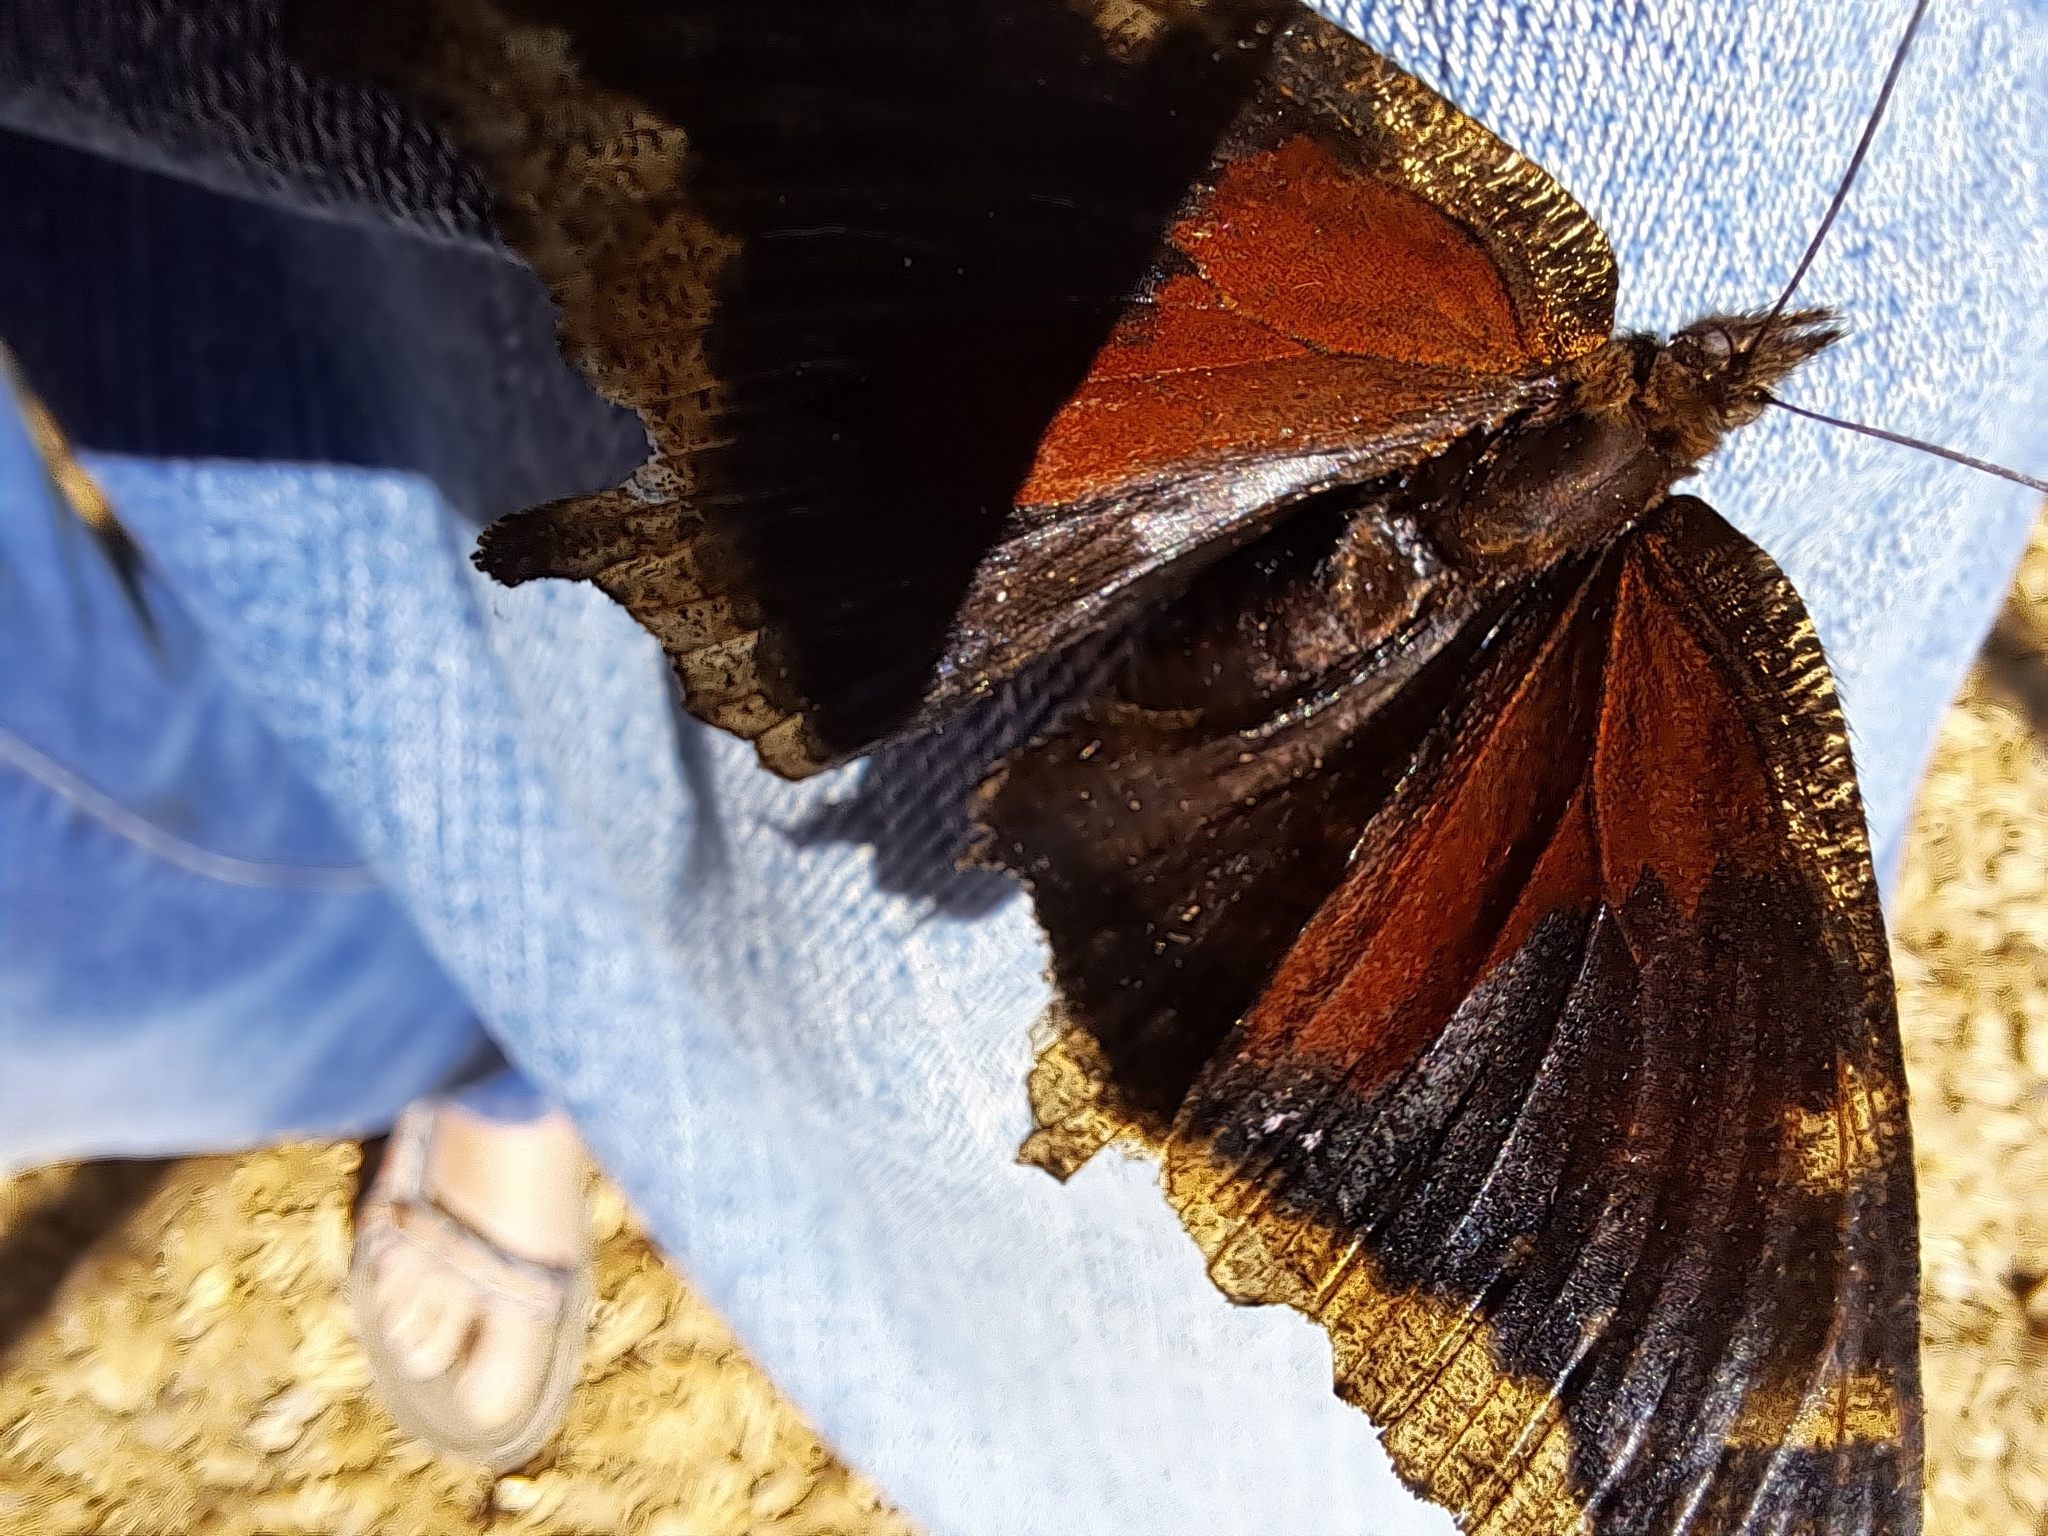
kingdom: Animalia
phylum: Arthropoda
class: Insecta
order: Lepidoptera
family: Nymphalidae
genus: Nymphalis
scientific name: Nymphalis antiopa
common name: Camberwell beauty
